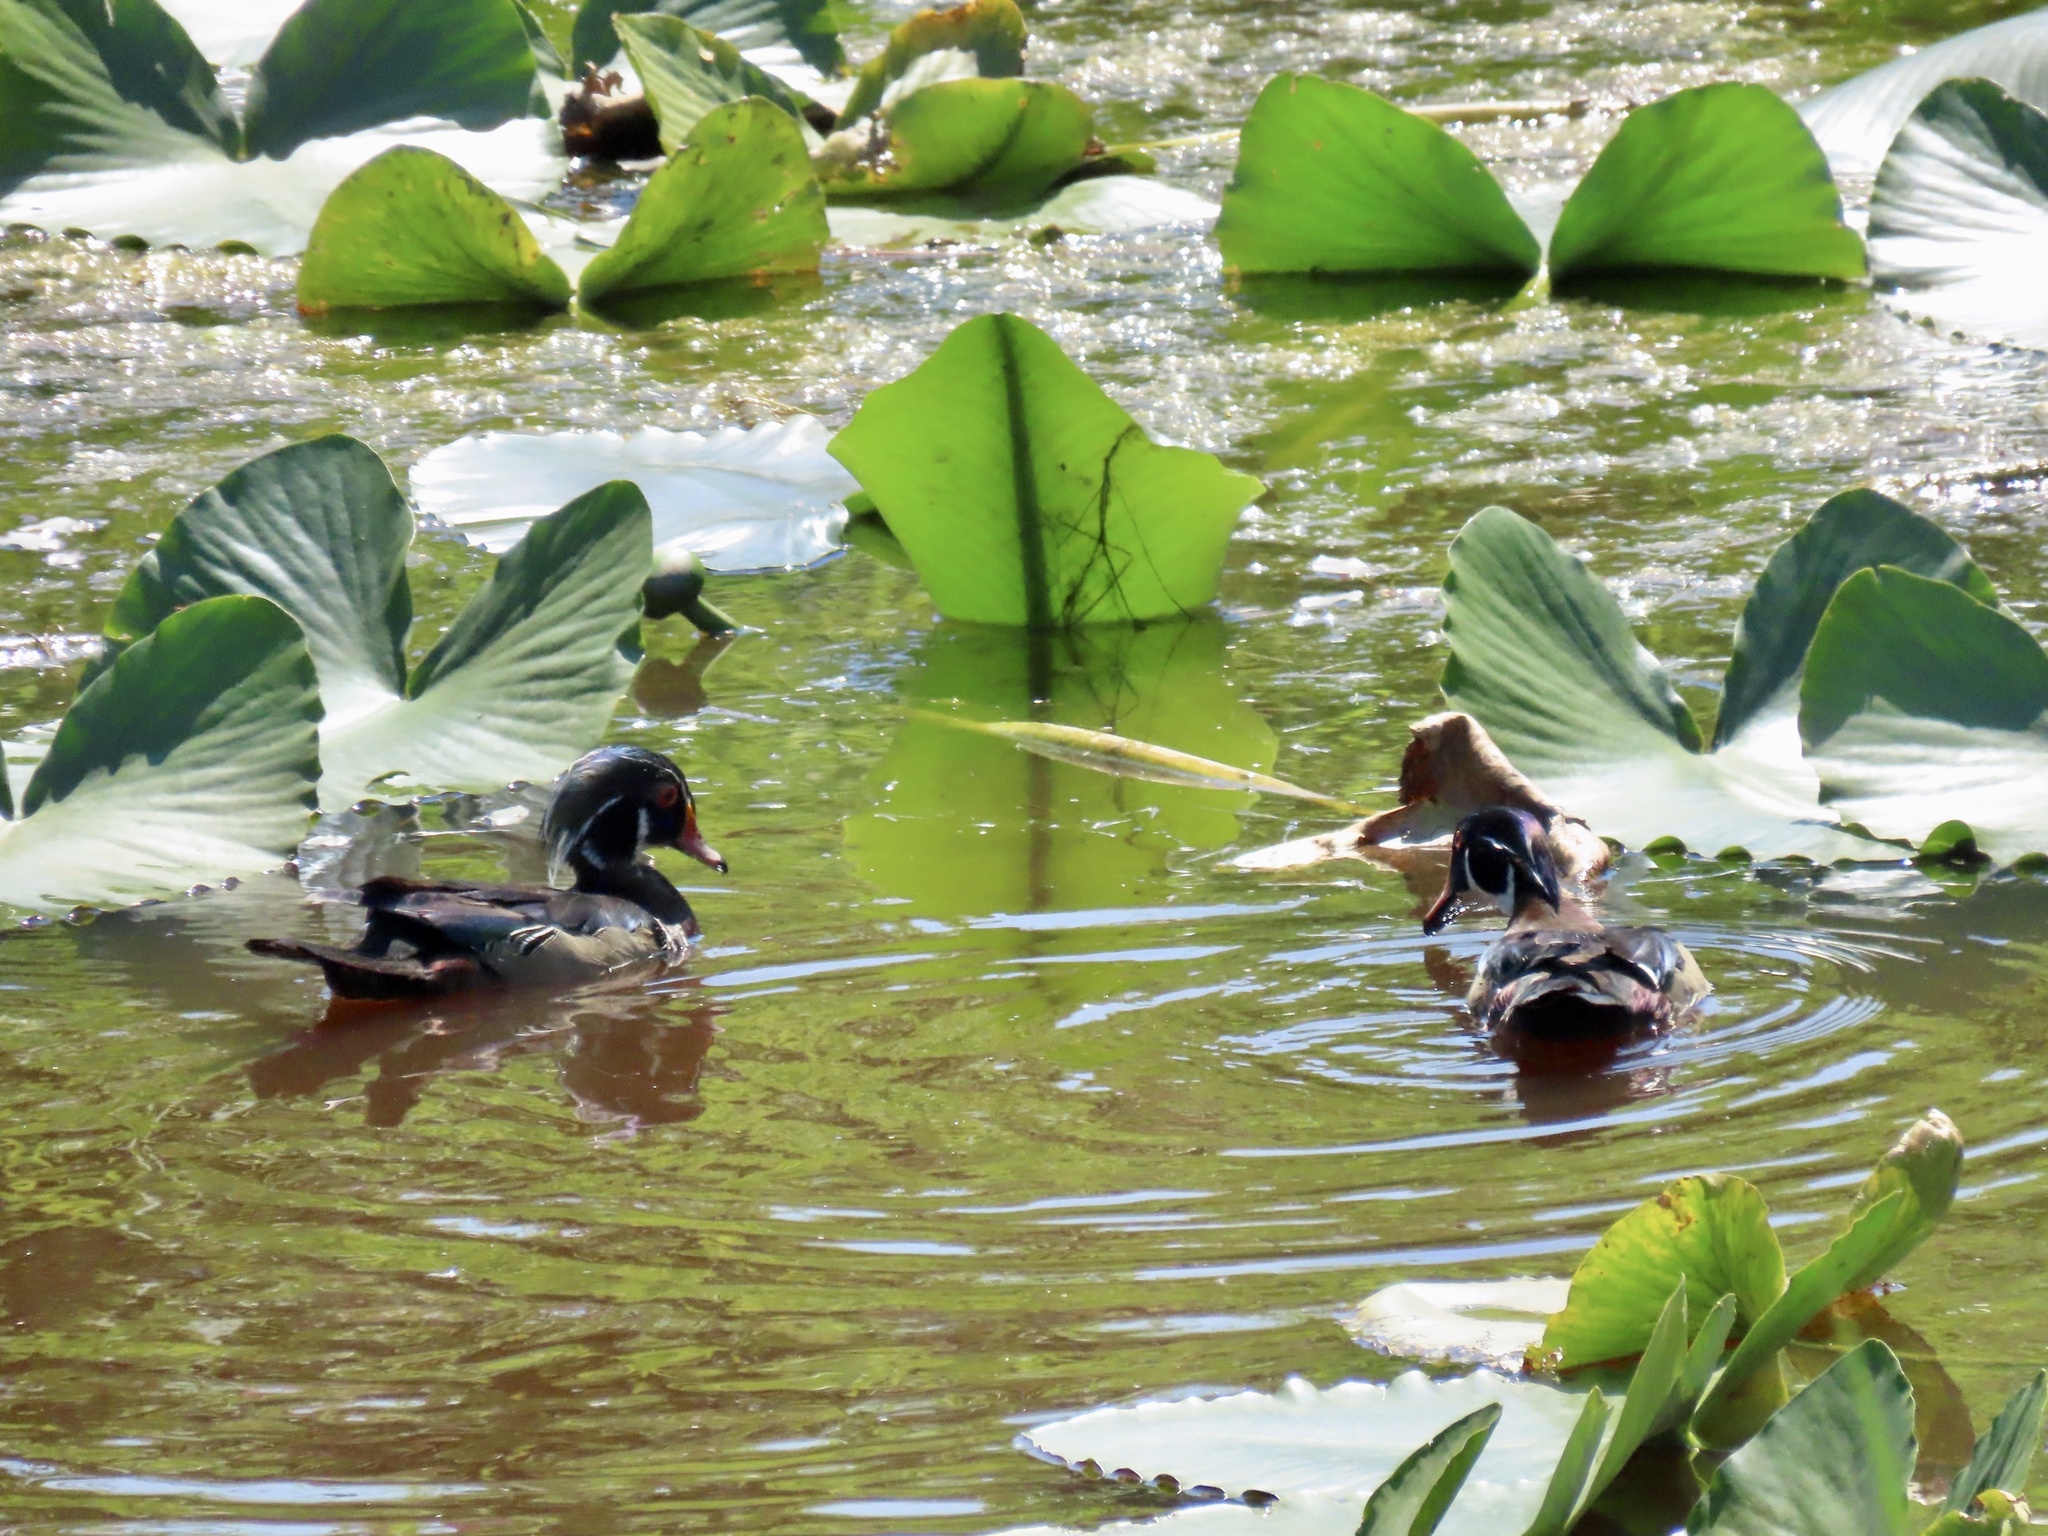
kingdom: Animalia
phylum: Chordata
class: Aves
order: Anseriformes
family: Anatidae
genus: Aix
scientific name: Aix sponsa
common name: Wood duck
